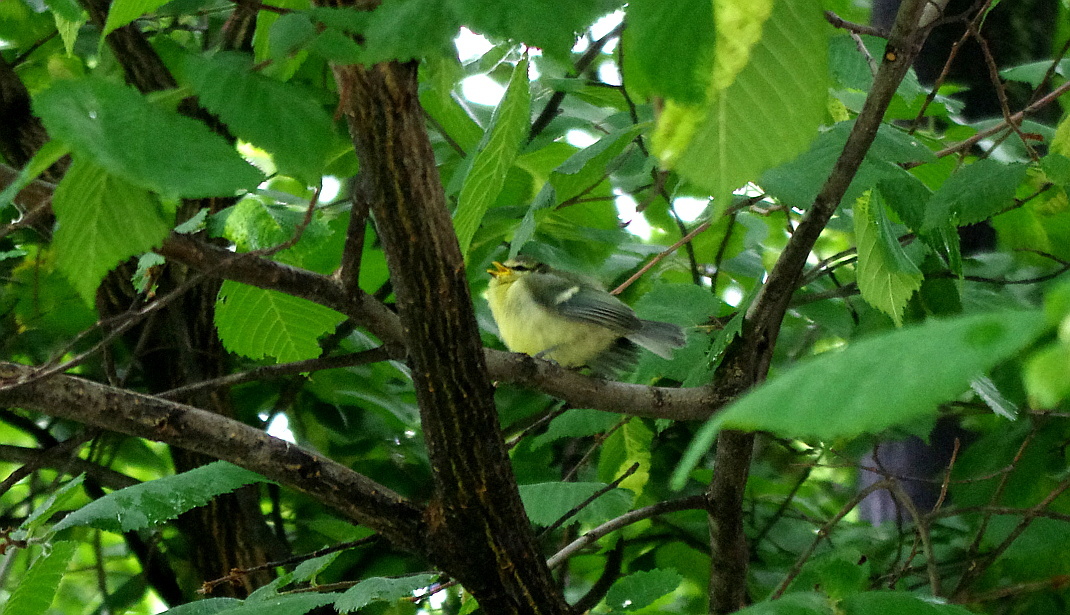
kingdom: Animalia
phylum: Chordata
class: Aves
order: Passeriformes
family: Paridae
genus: Cyanistes
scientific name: Cyanistes caeruleus
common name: Eurasian blue tit
